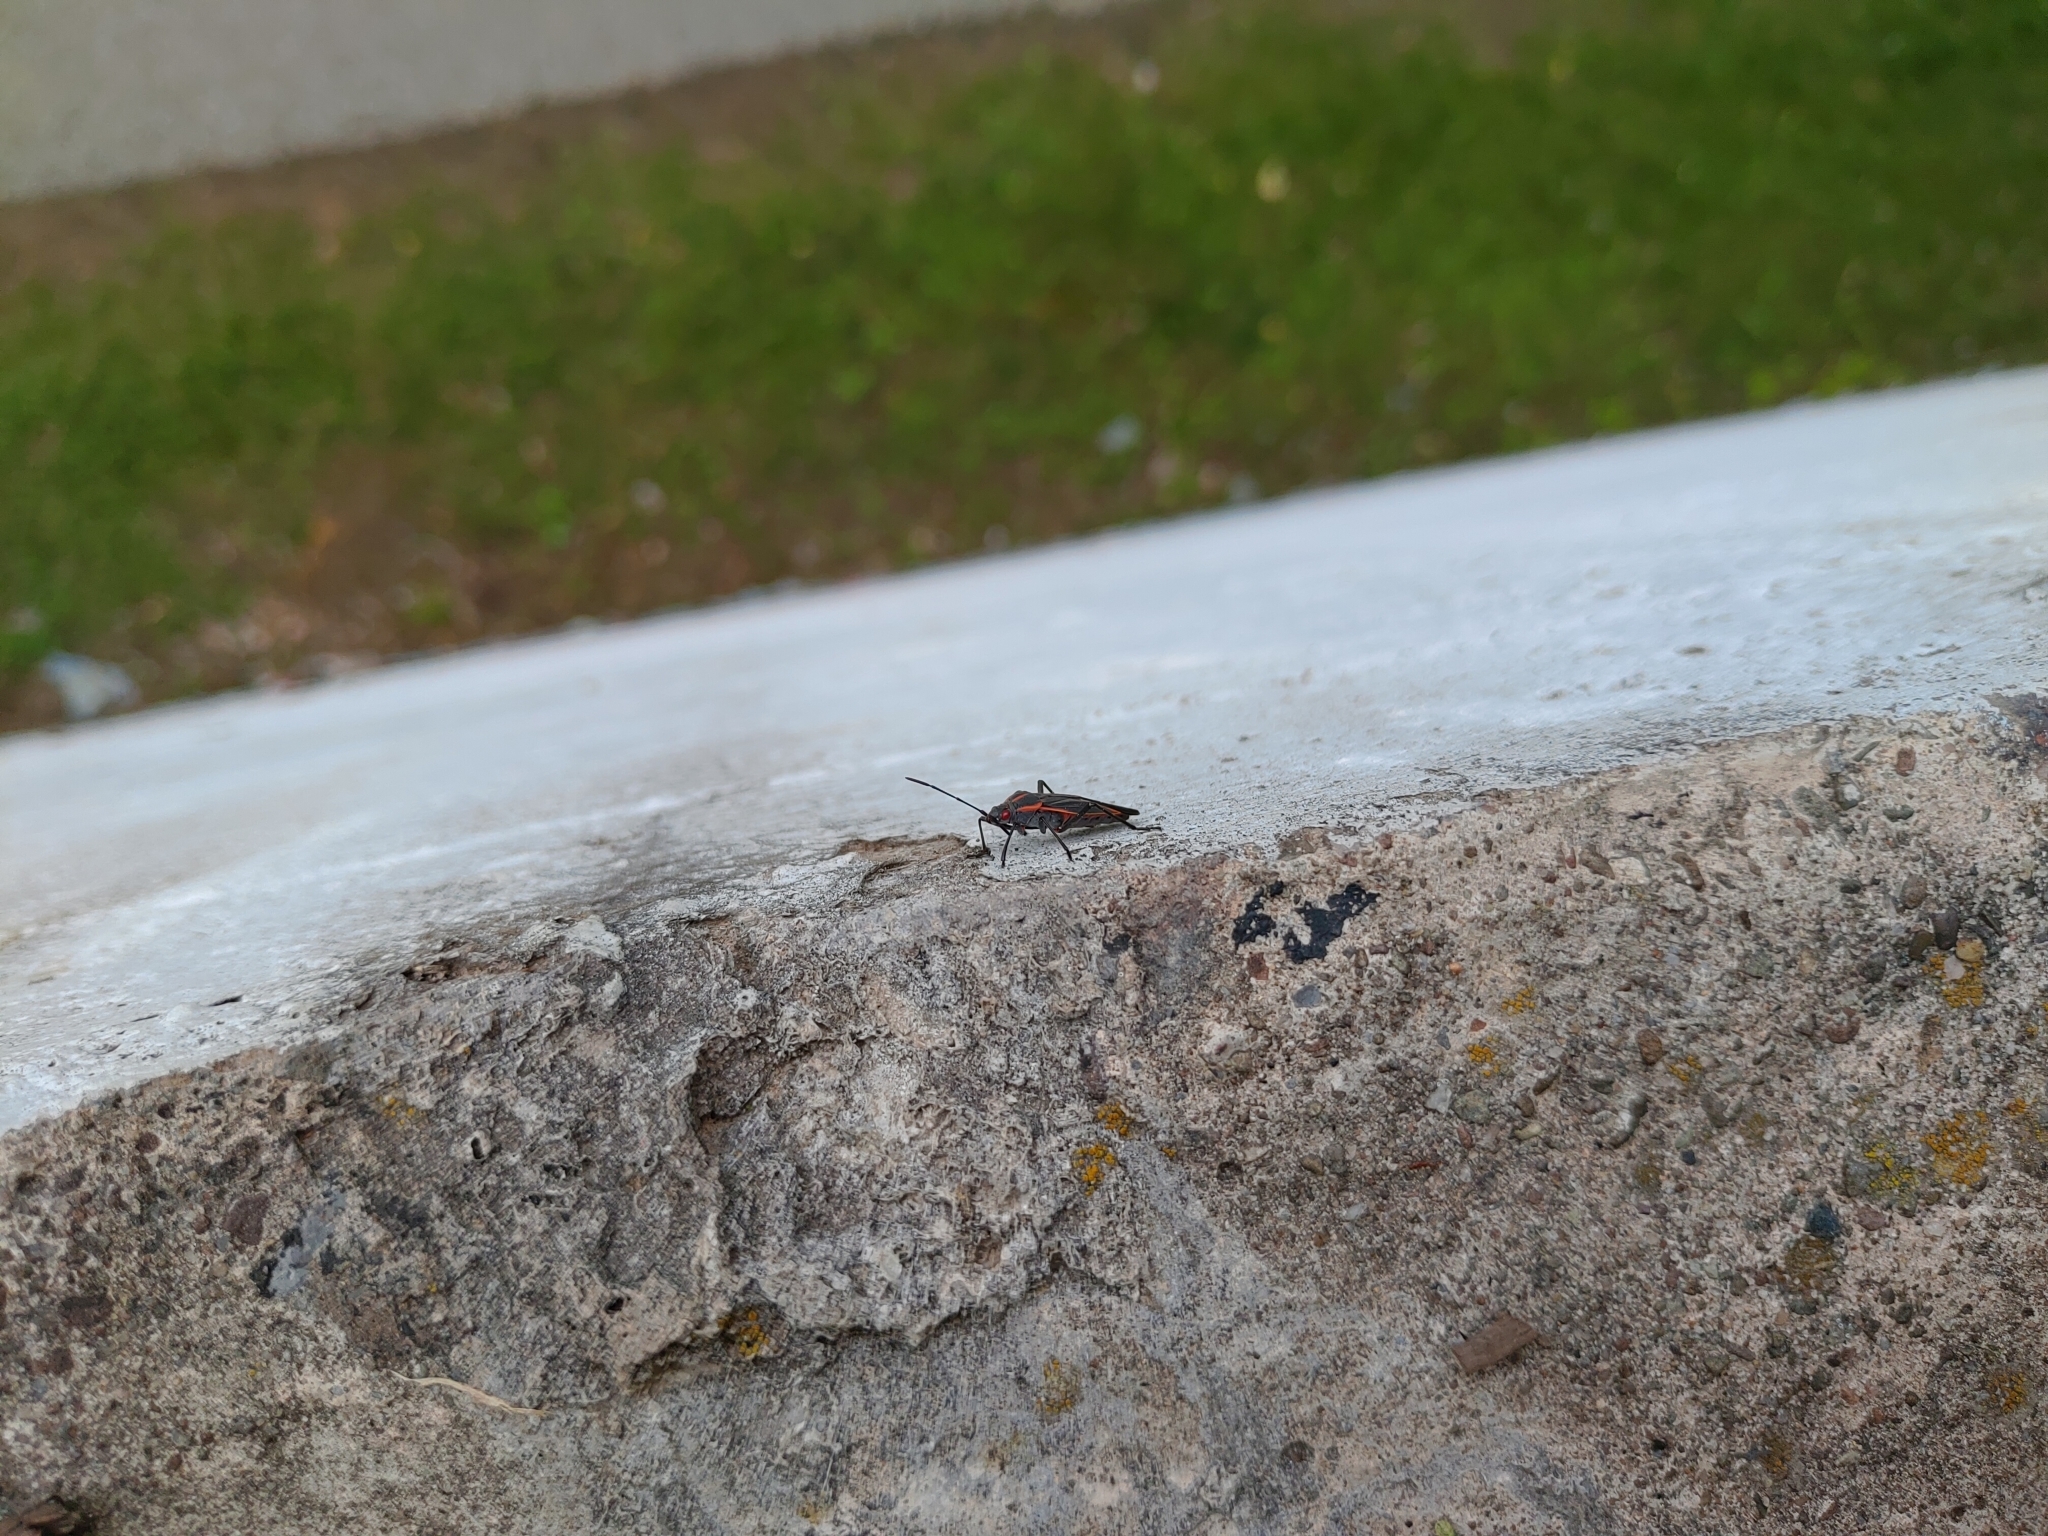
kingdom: Animalia
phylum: Arthropoda
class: Insecta
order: Hemiptera
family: Rhopalidae
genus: Boisea
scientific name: Boisea trivittata
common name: Boxelder bug
